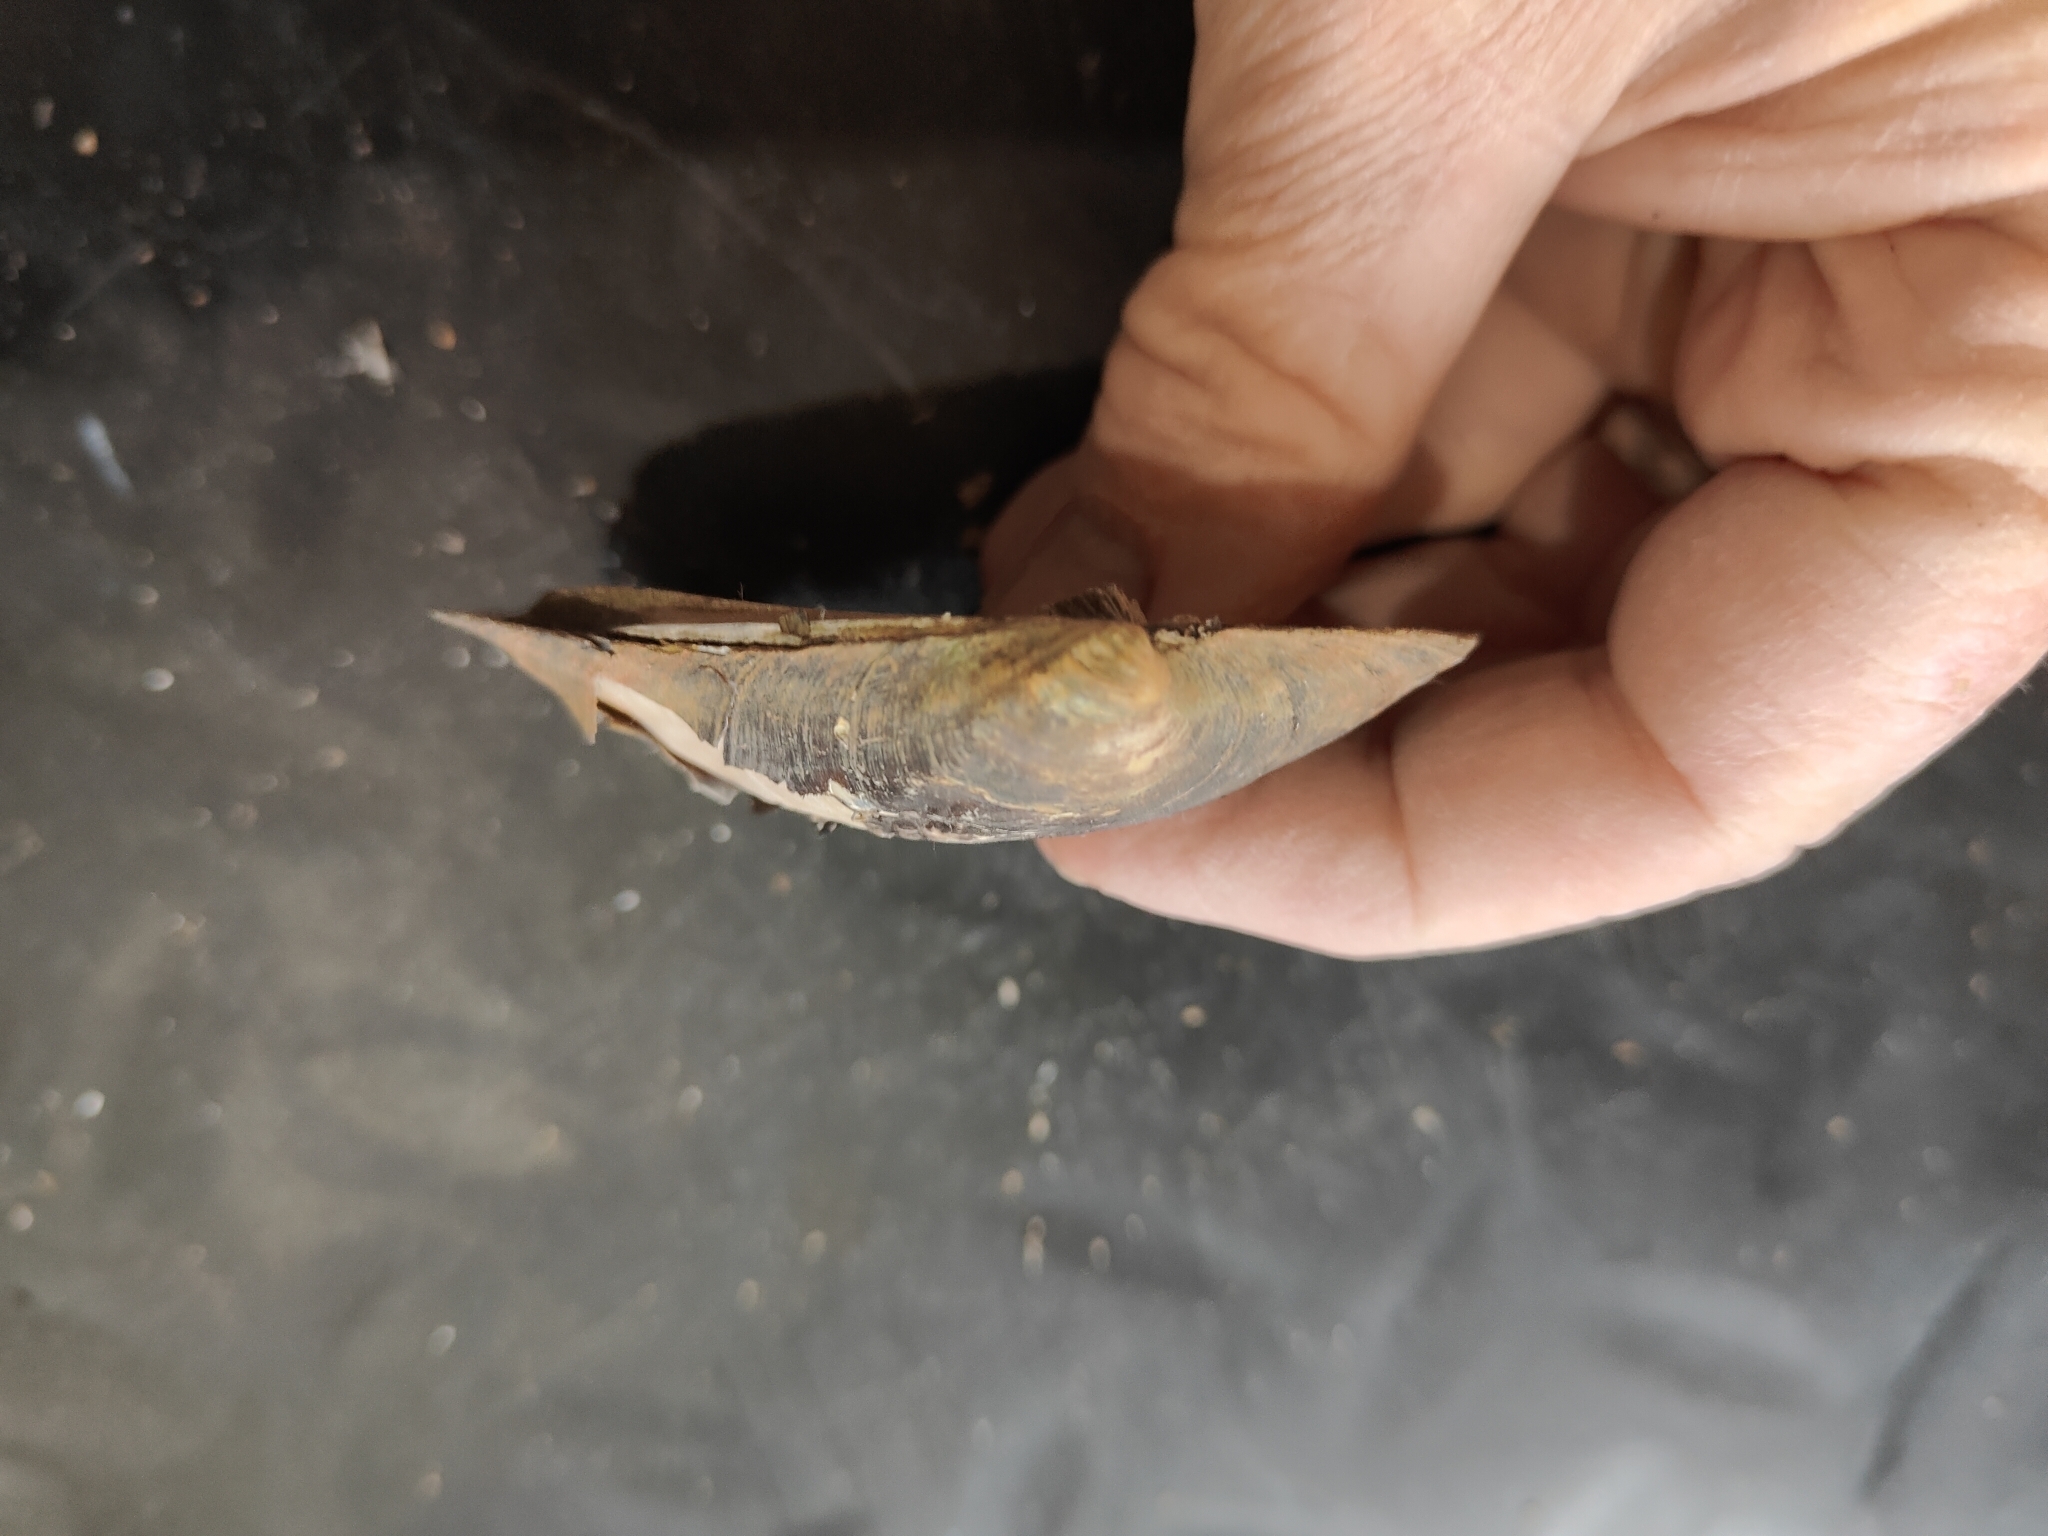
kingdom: Animalia
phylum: Mollusca
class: Bivalvia
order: Unionida
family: Unionidae
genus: Amblema
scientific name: Amblema plicata
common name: Threeridge
